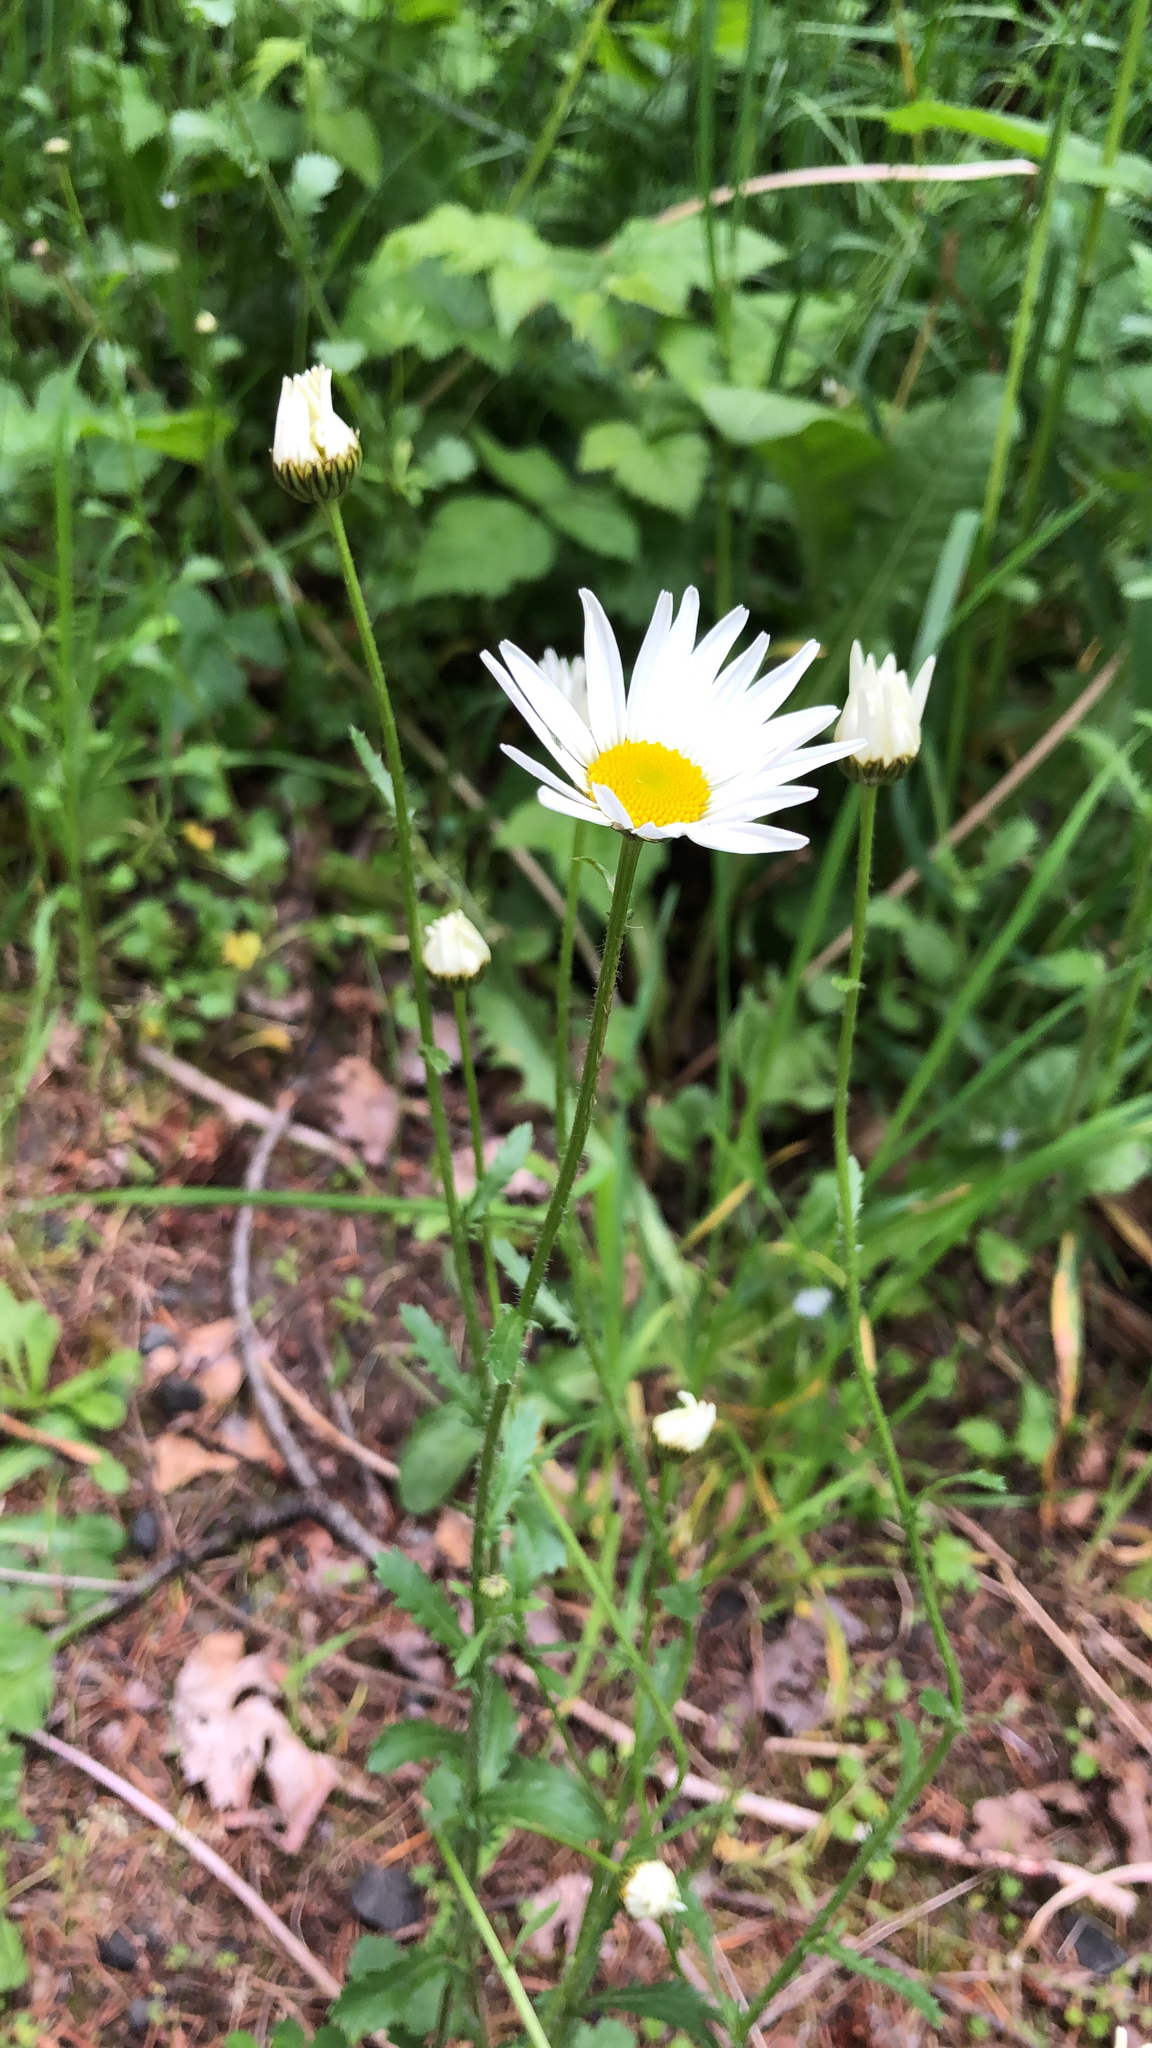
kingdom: Plantae
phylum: Tracheophyta
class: Magnoliopsida
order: Asterales
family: Asteraceae
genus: Leucanthemum
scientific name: Leucanthemum vulgare
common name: Oxeye daisy
